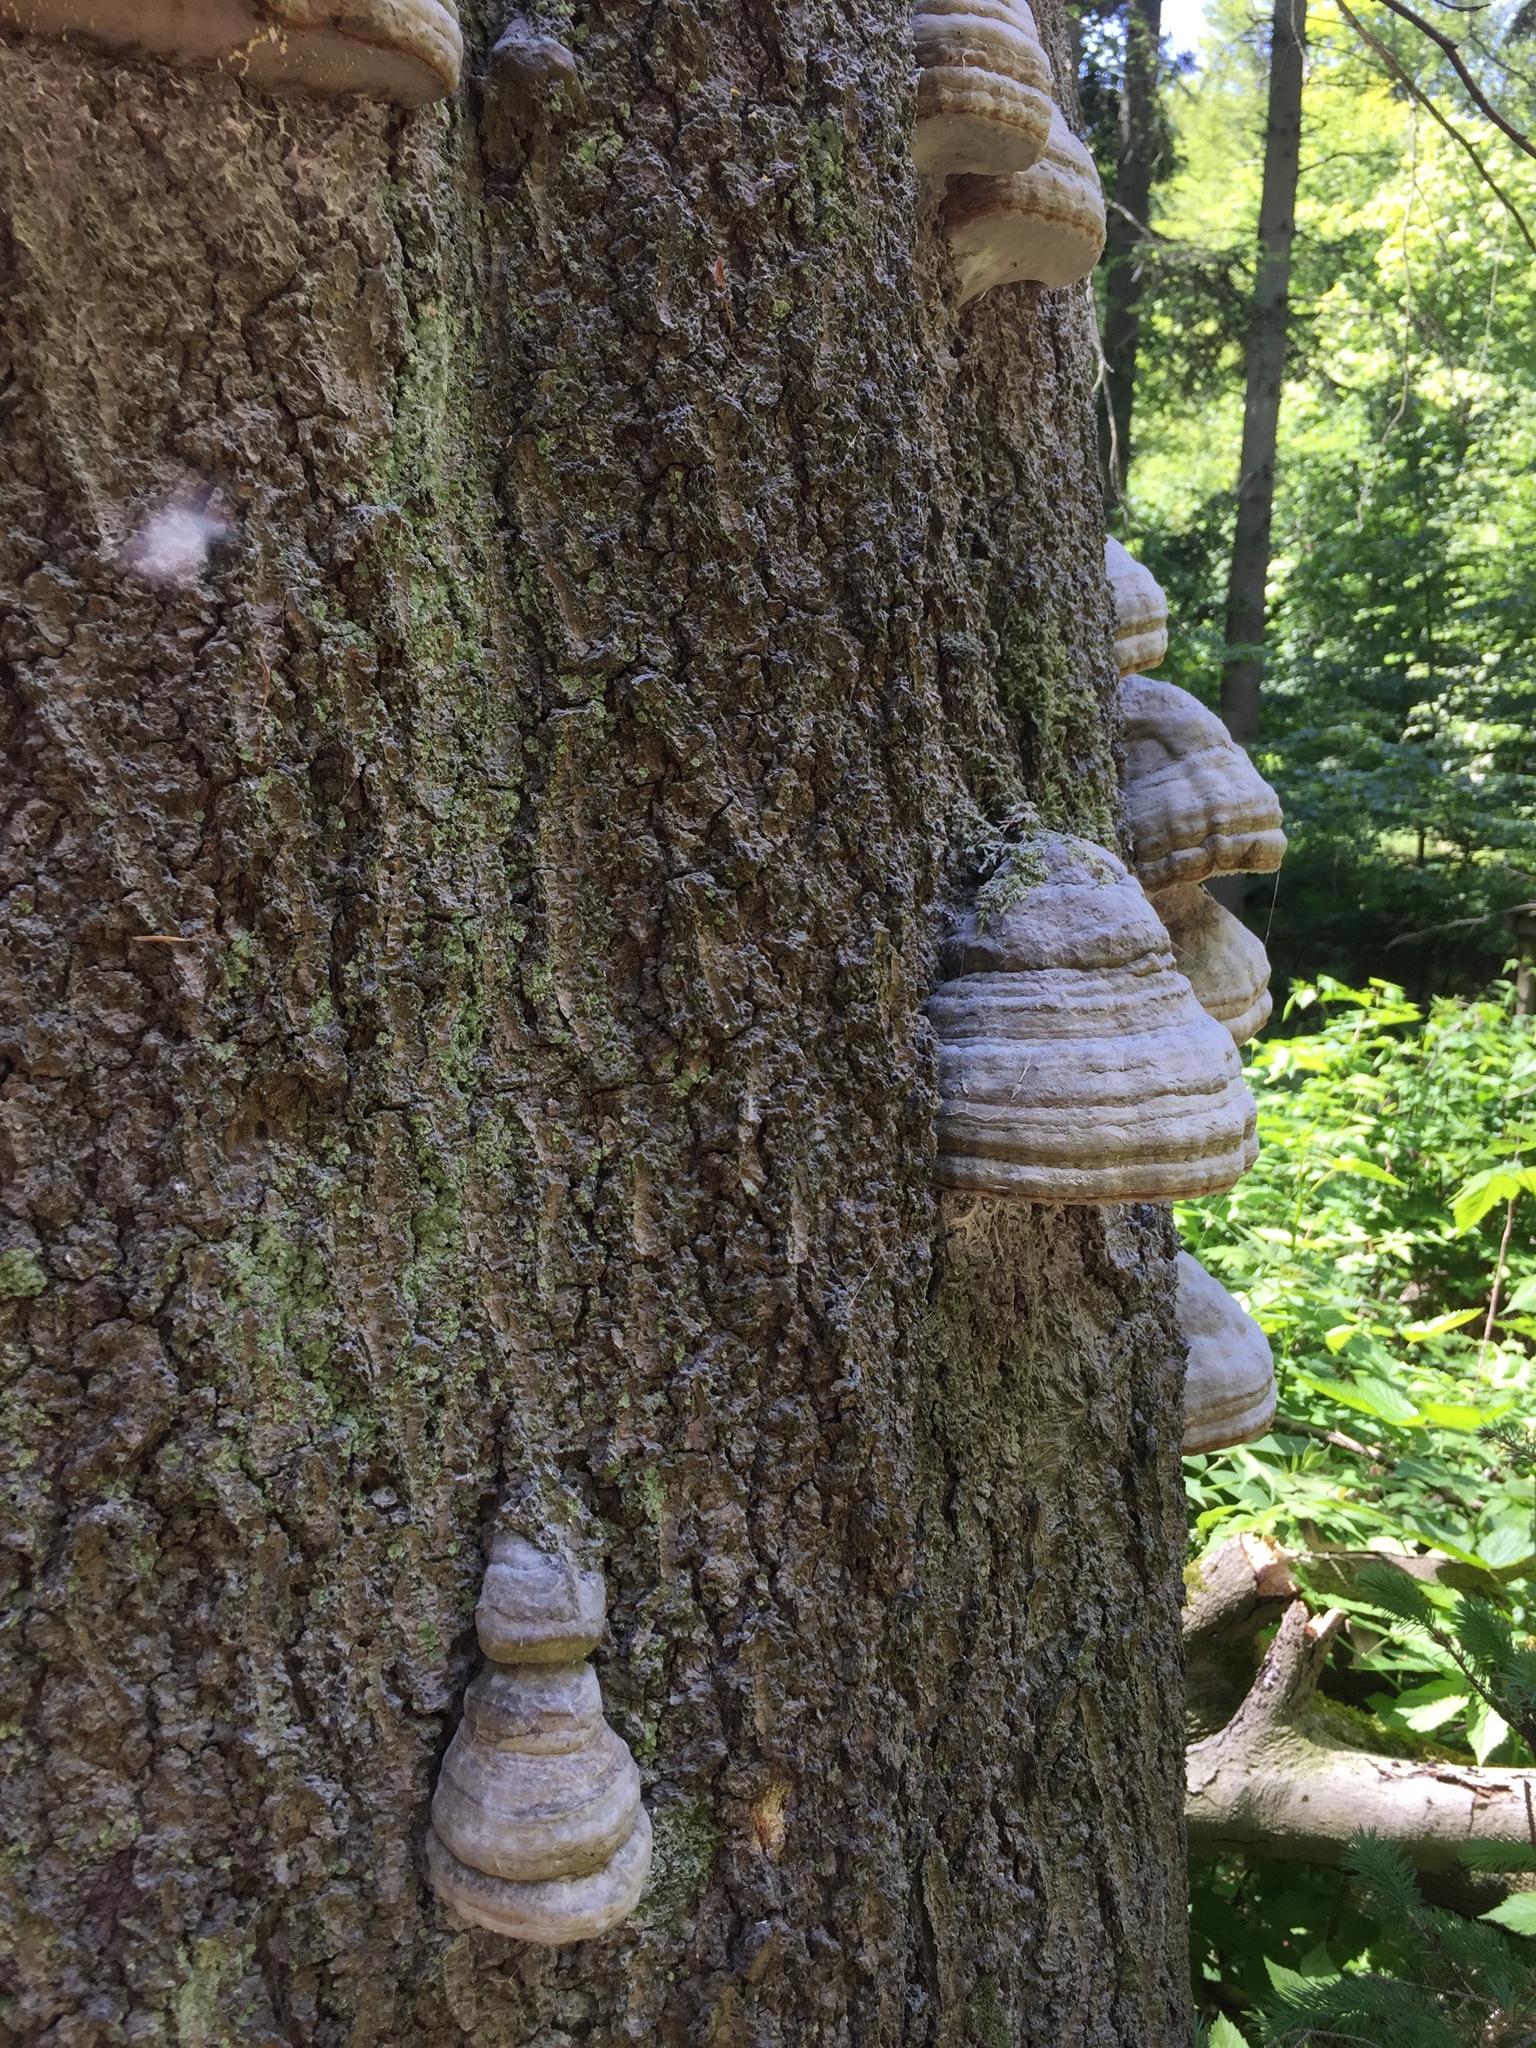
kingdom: Fungi
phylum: Basidiomycota
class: Agaricomycetes
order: Polyporales
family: Polyporaceae
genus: Fomes
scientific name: Fomes fomentarius
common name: Hoof fungus
